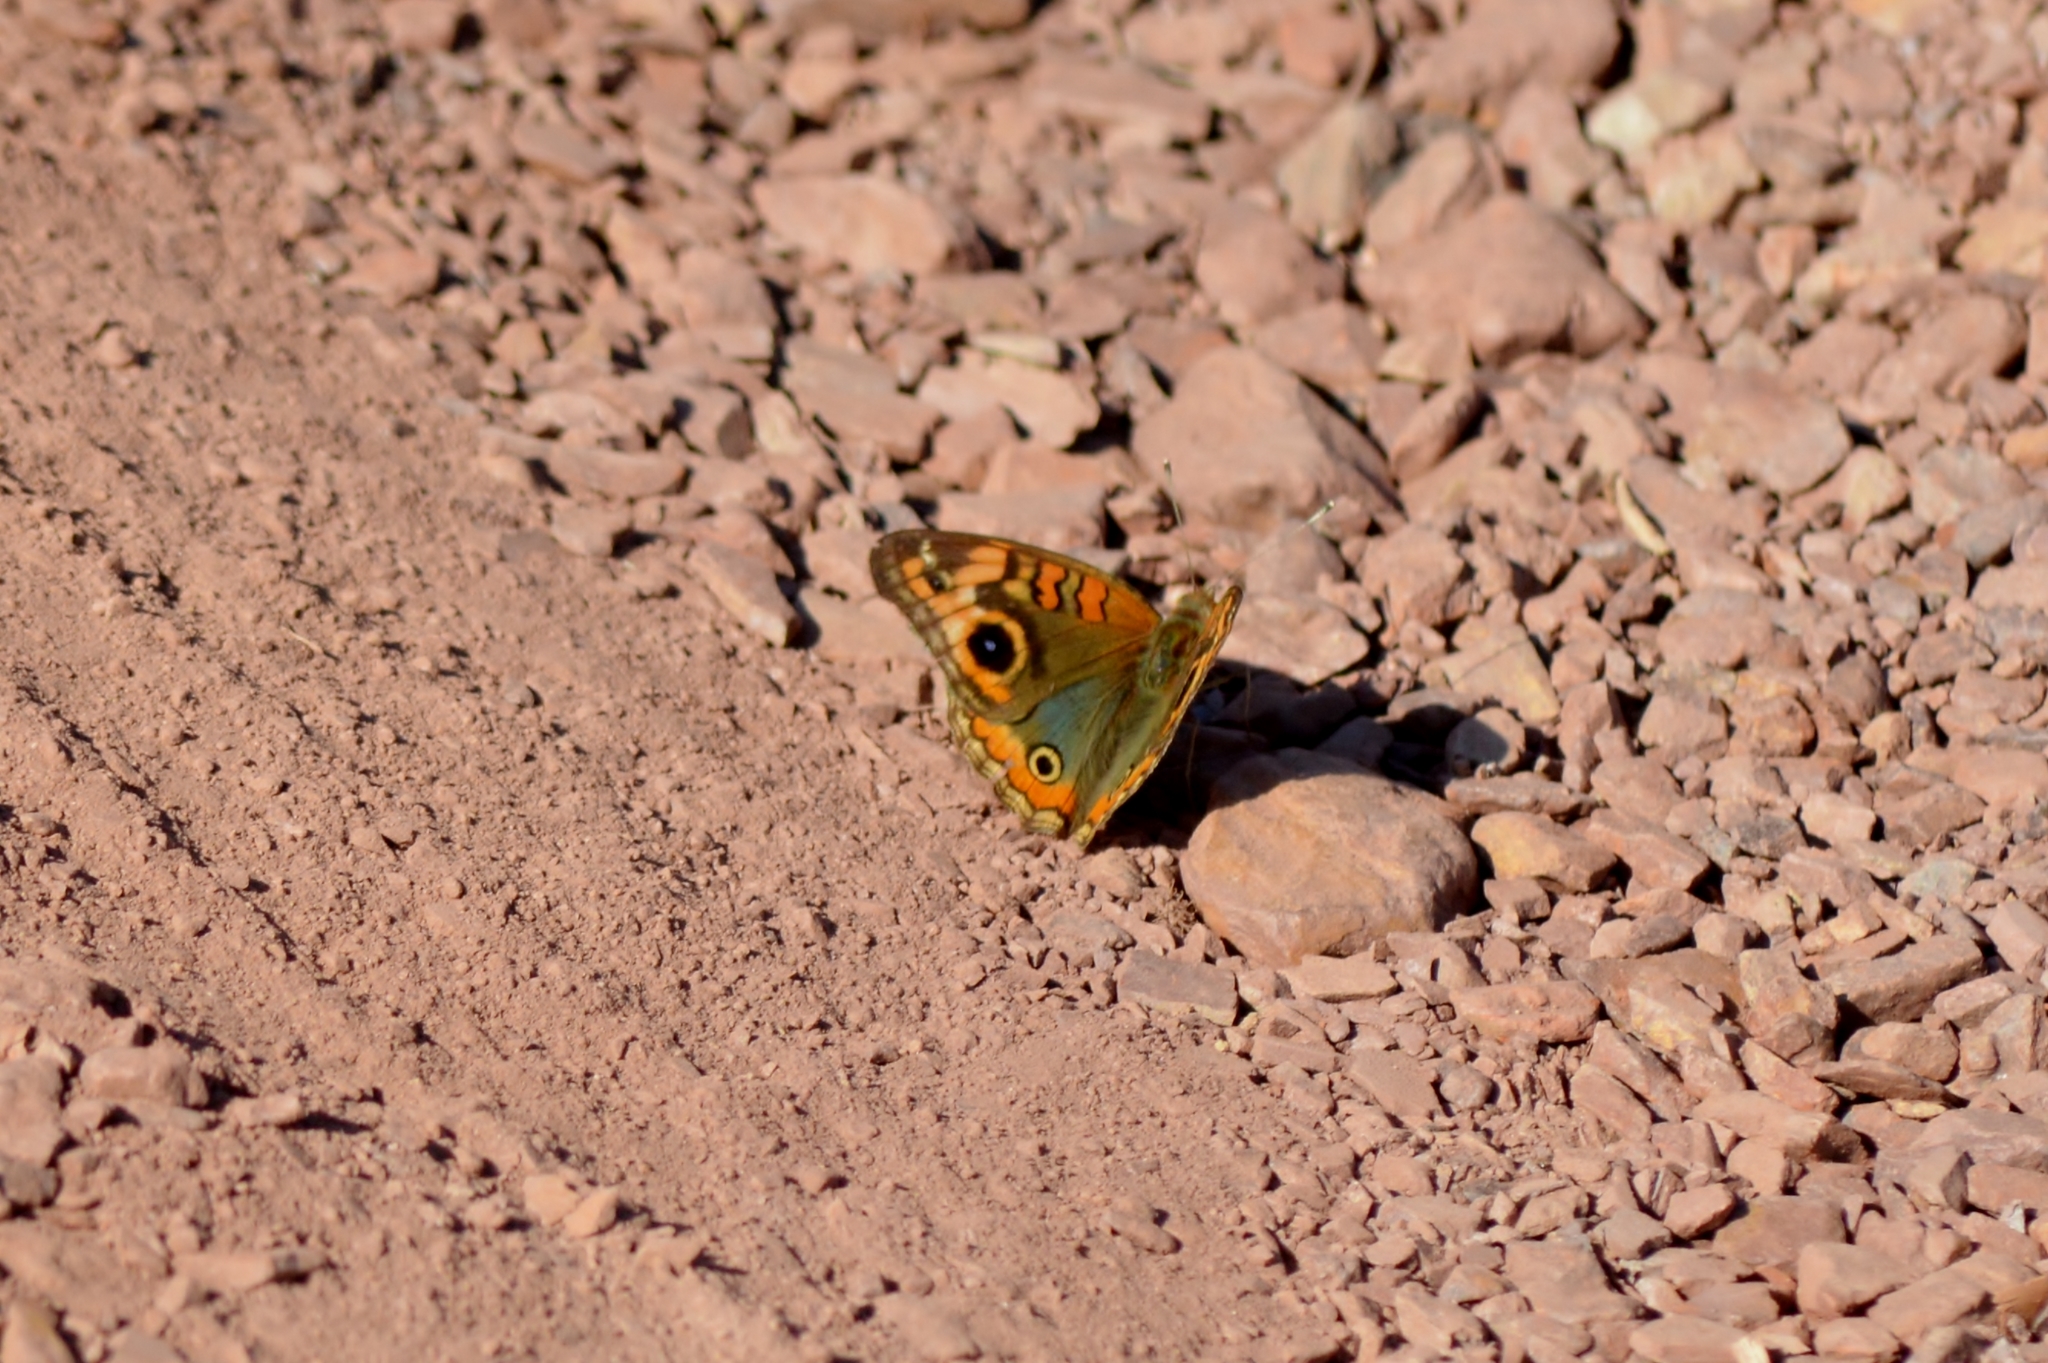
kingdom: Animalia
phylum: Arthropoda
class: Insecta
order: Lepidoptera
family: Nymphalidae
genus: Junonia
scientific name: Junonia evarete
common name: Black mangrove buckeye
